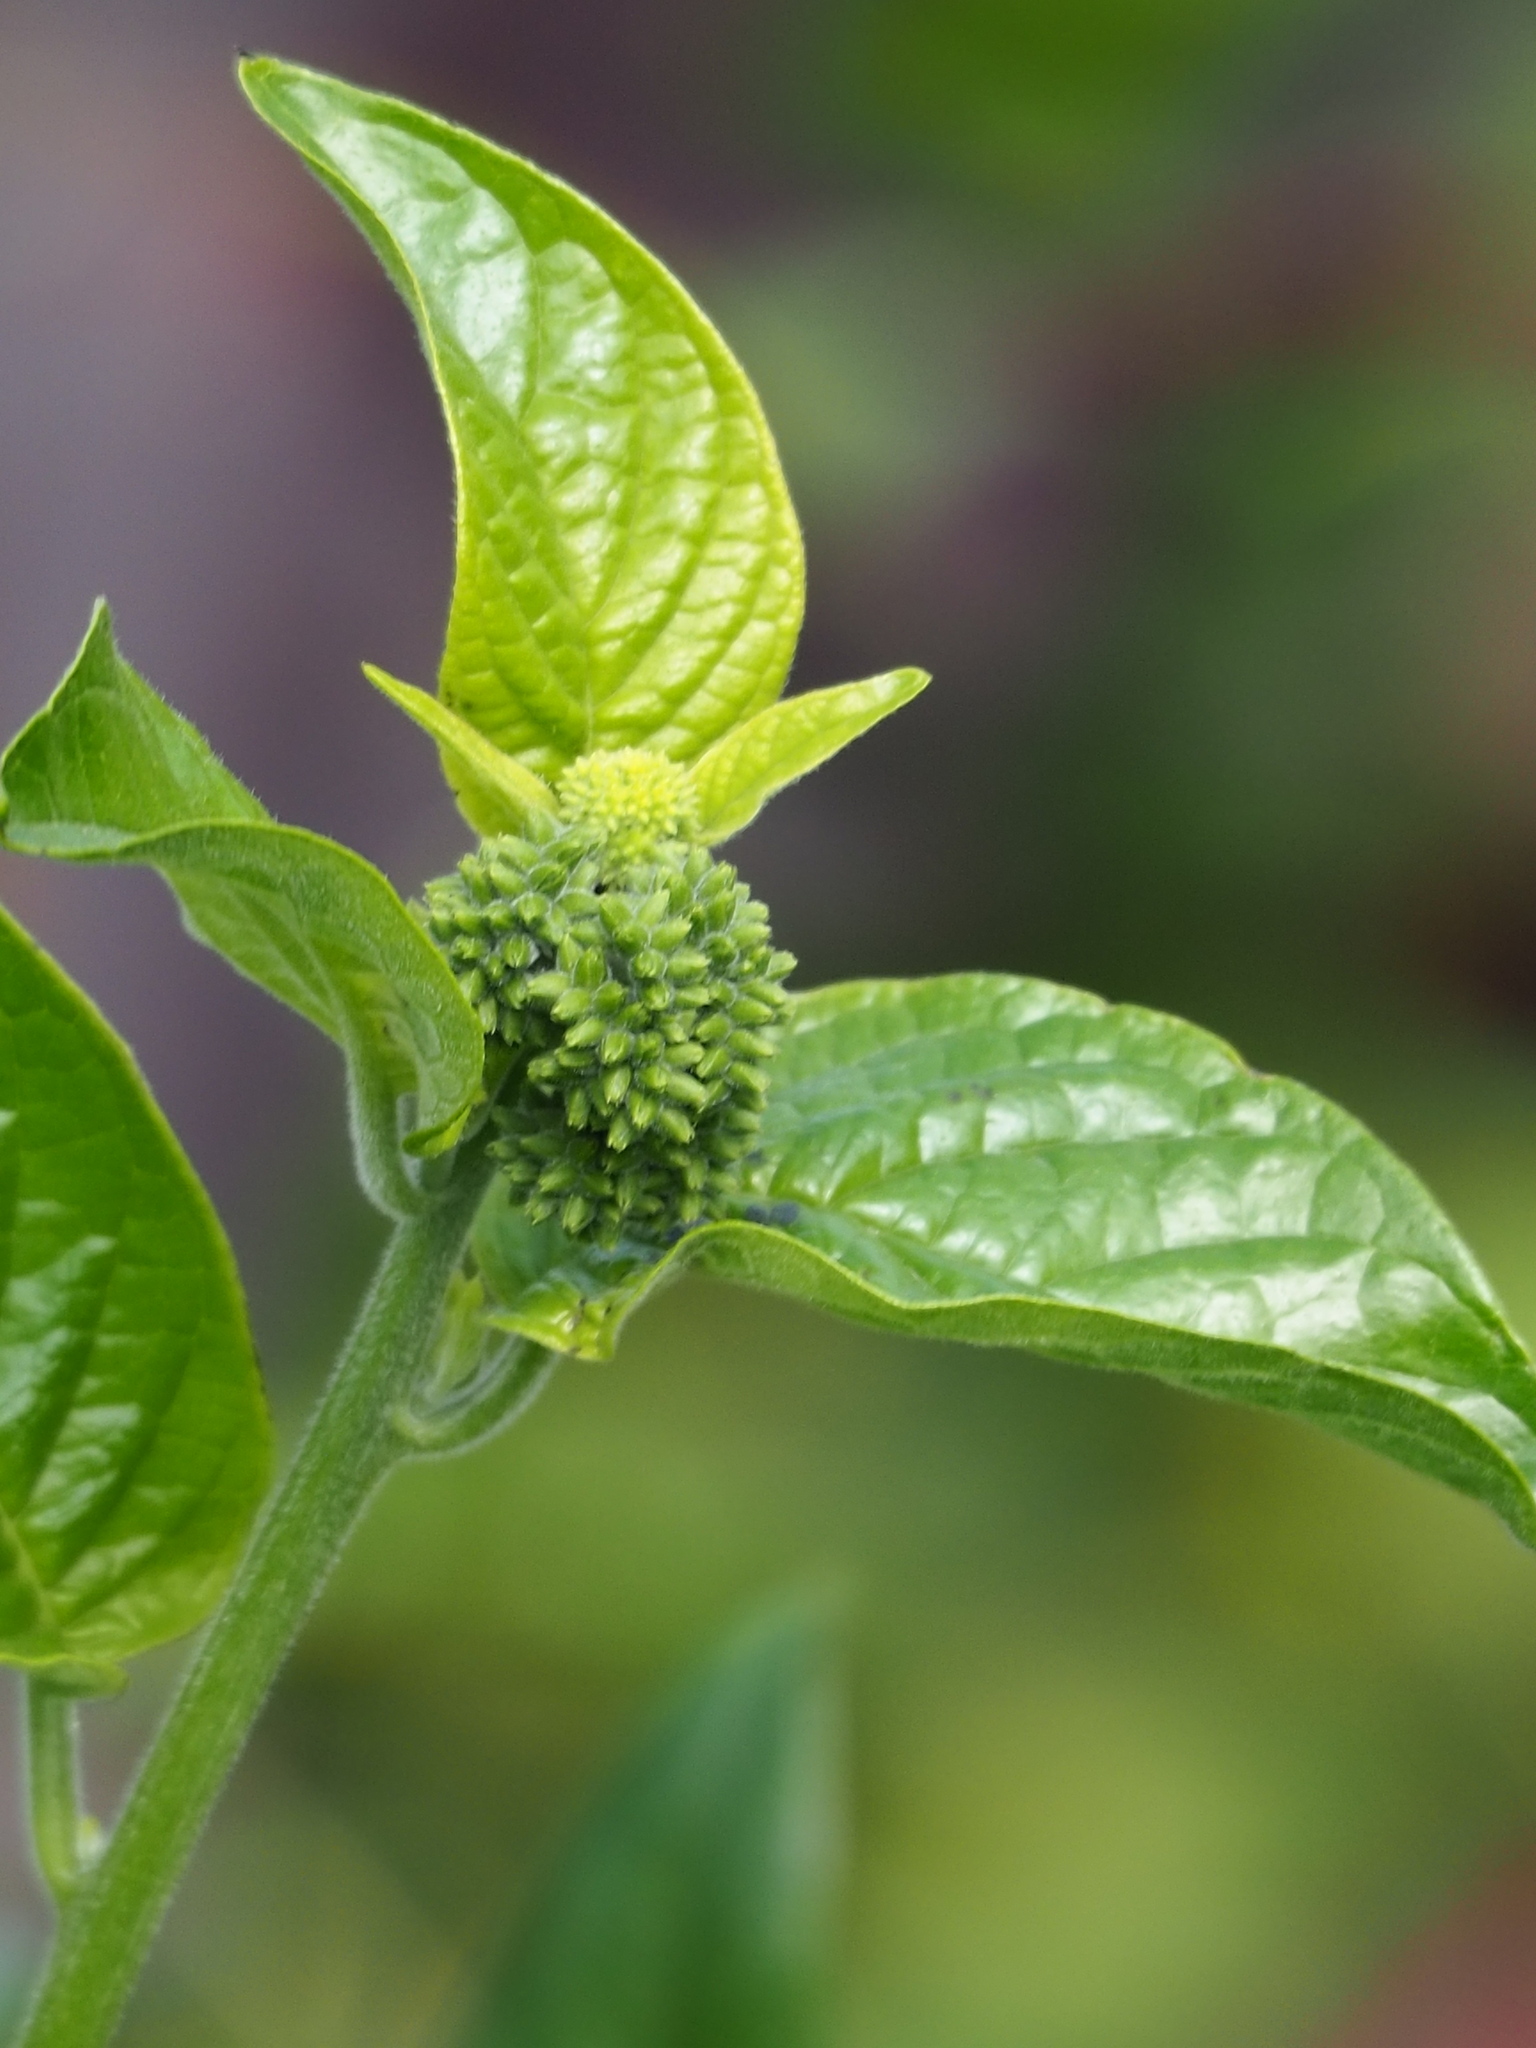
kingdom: Plantae
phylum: Tracheophyta
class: Magnoliopsida
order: Boraginales
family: Heliotropiaceae
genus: Heliotropium
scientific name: Heliotropium sarmentosum
